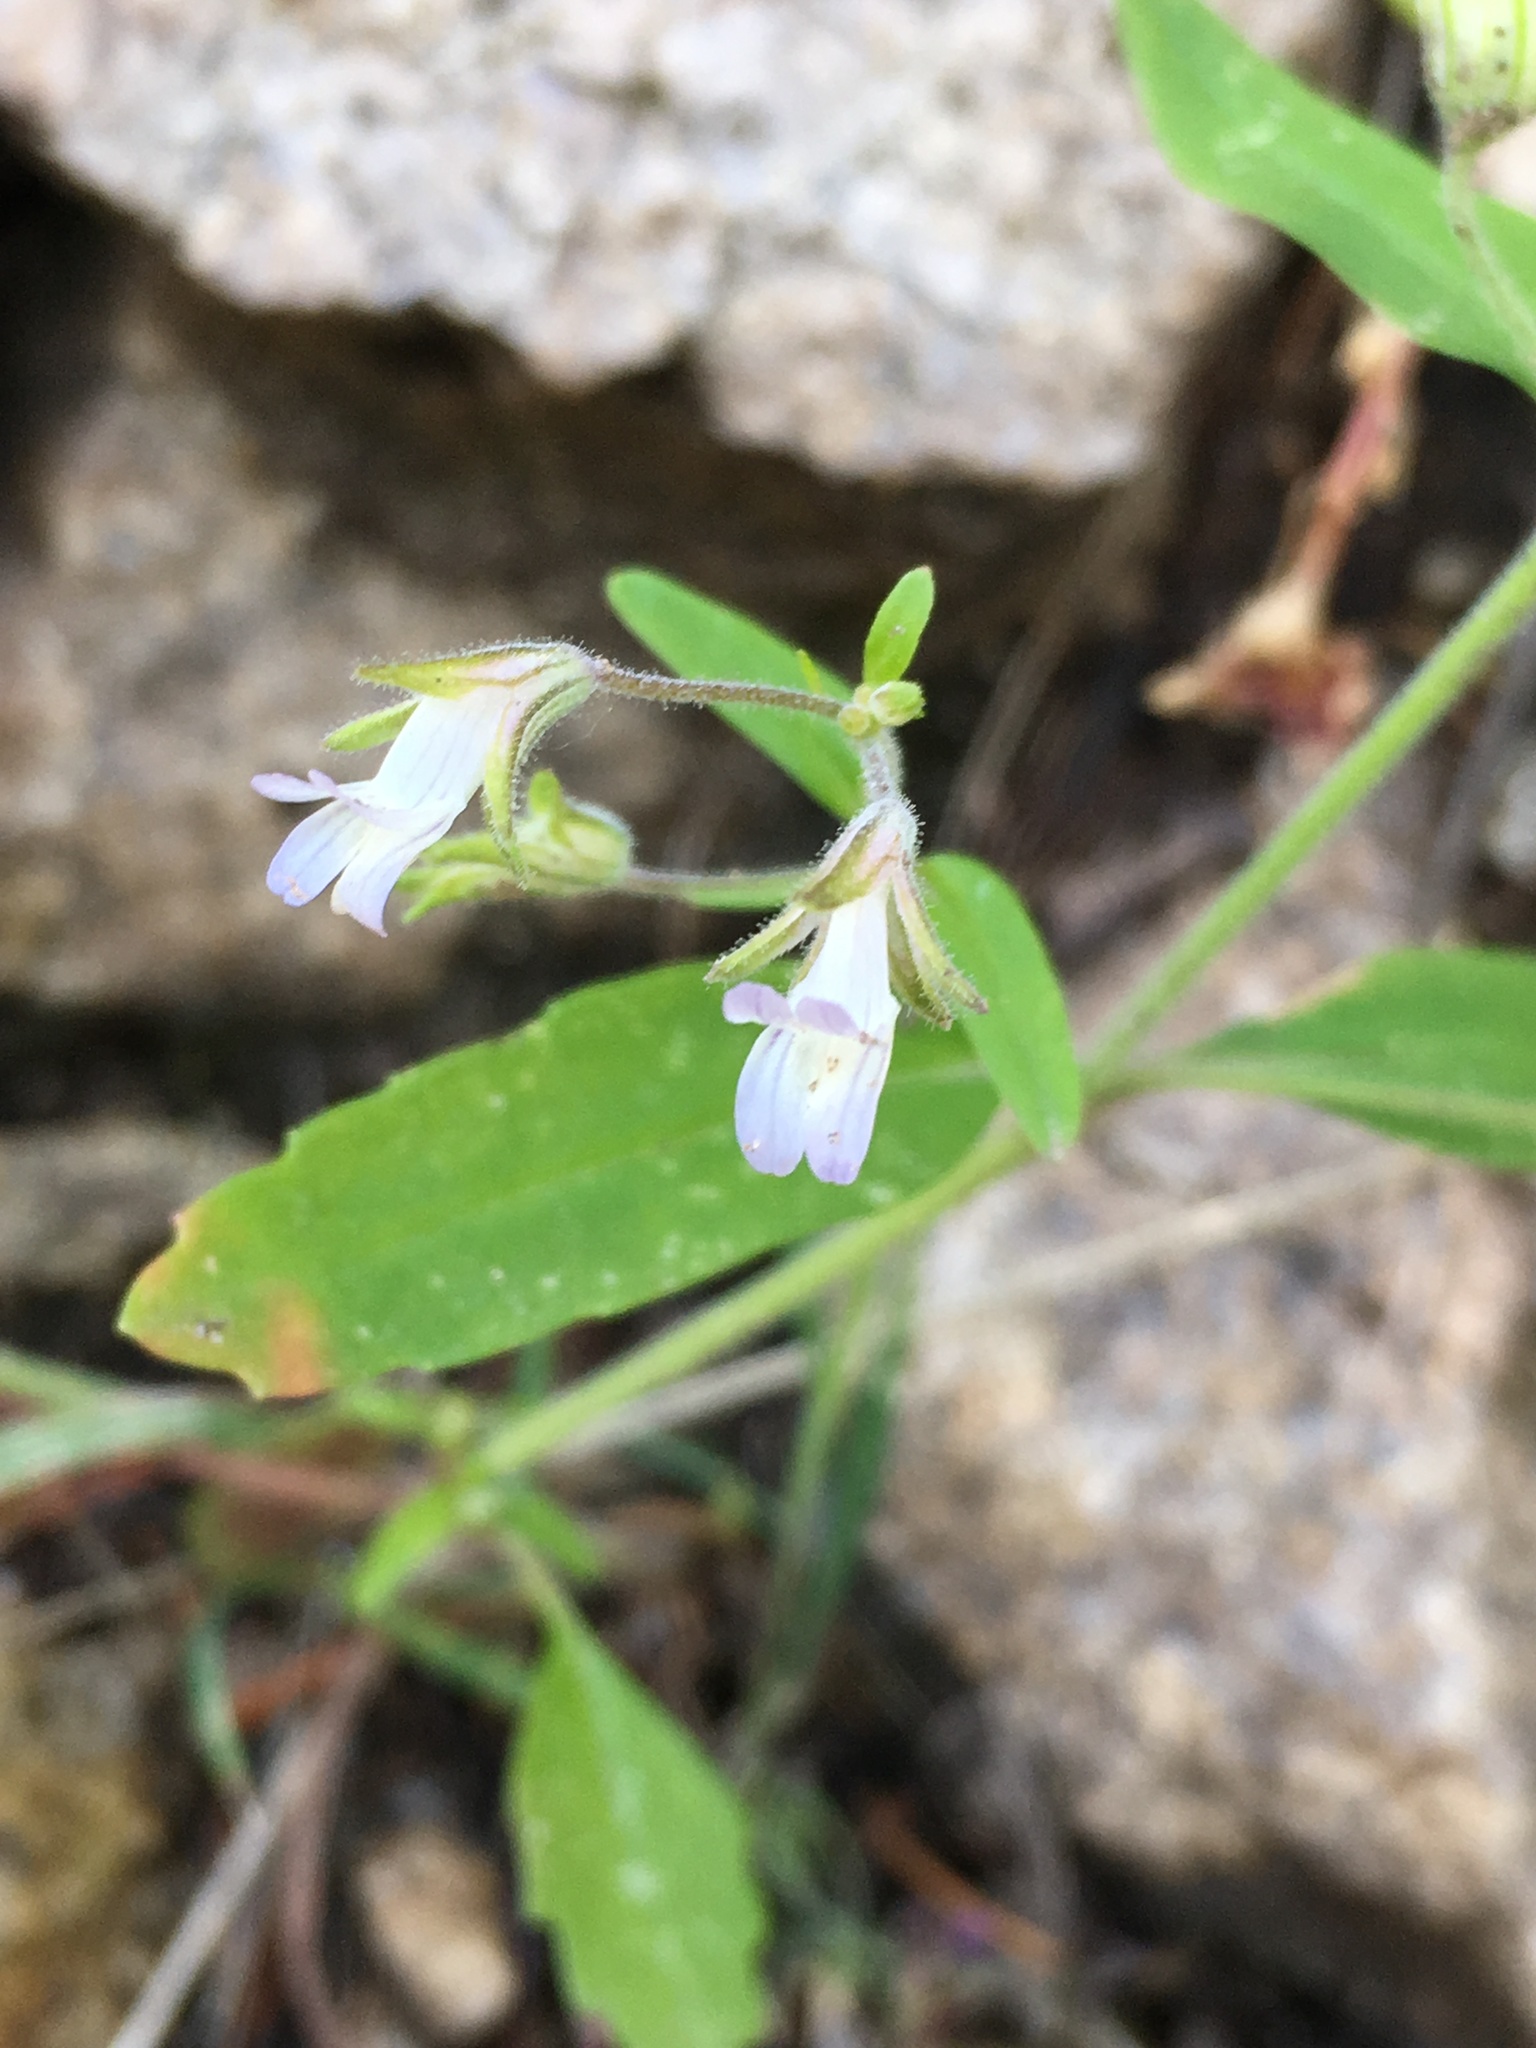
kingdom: Plantae
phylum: Tracheophyta
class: Magnoliopsida
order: Lamiales
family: Plantaginaceae
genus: Collinsia
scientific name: Collinsia childii
